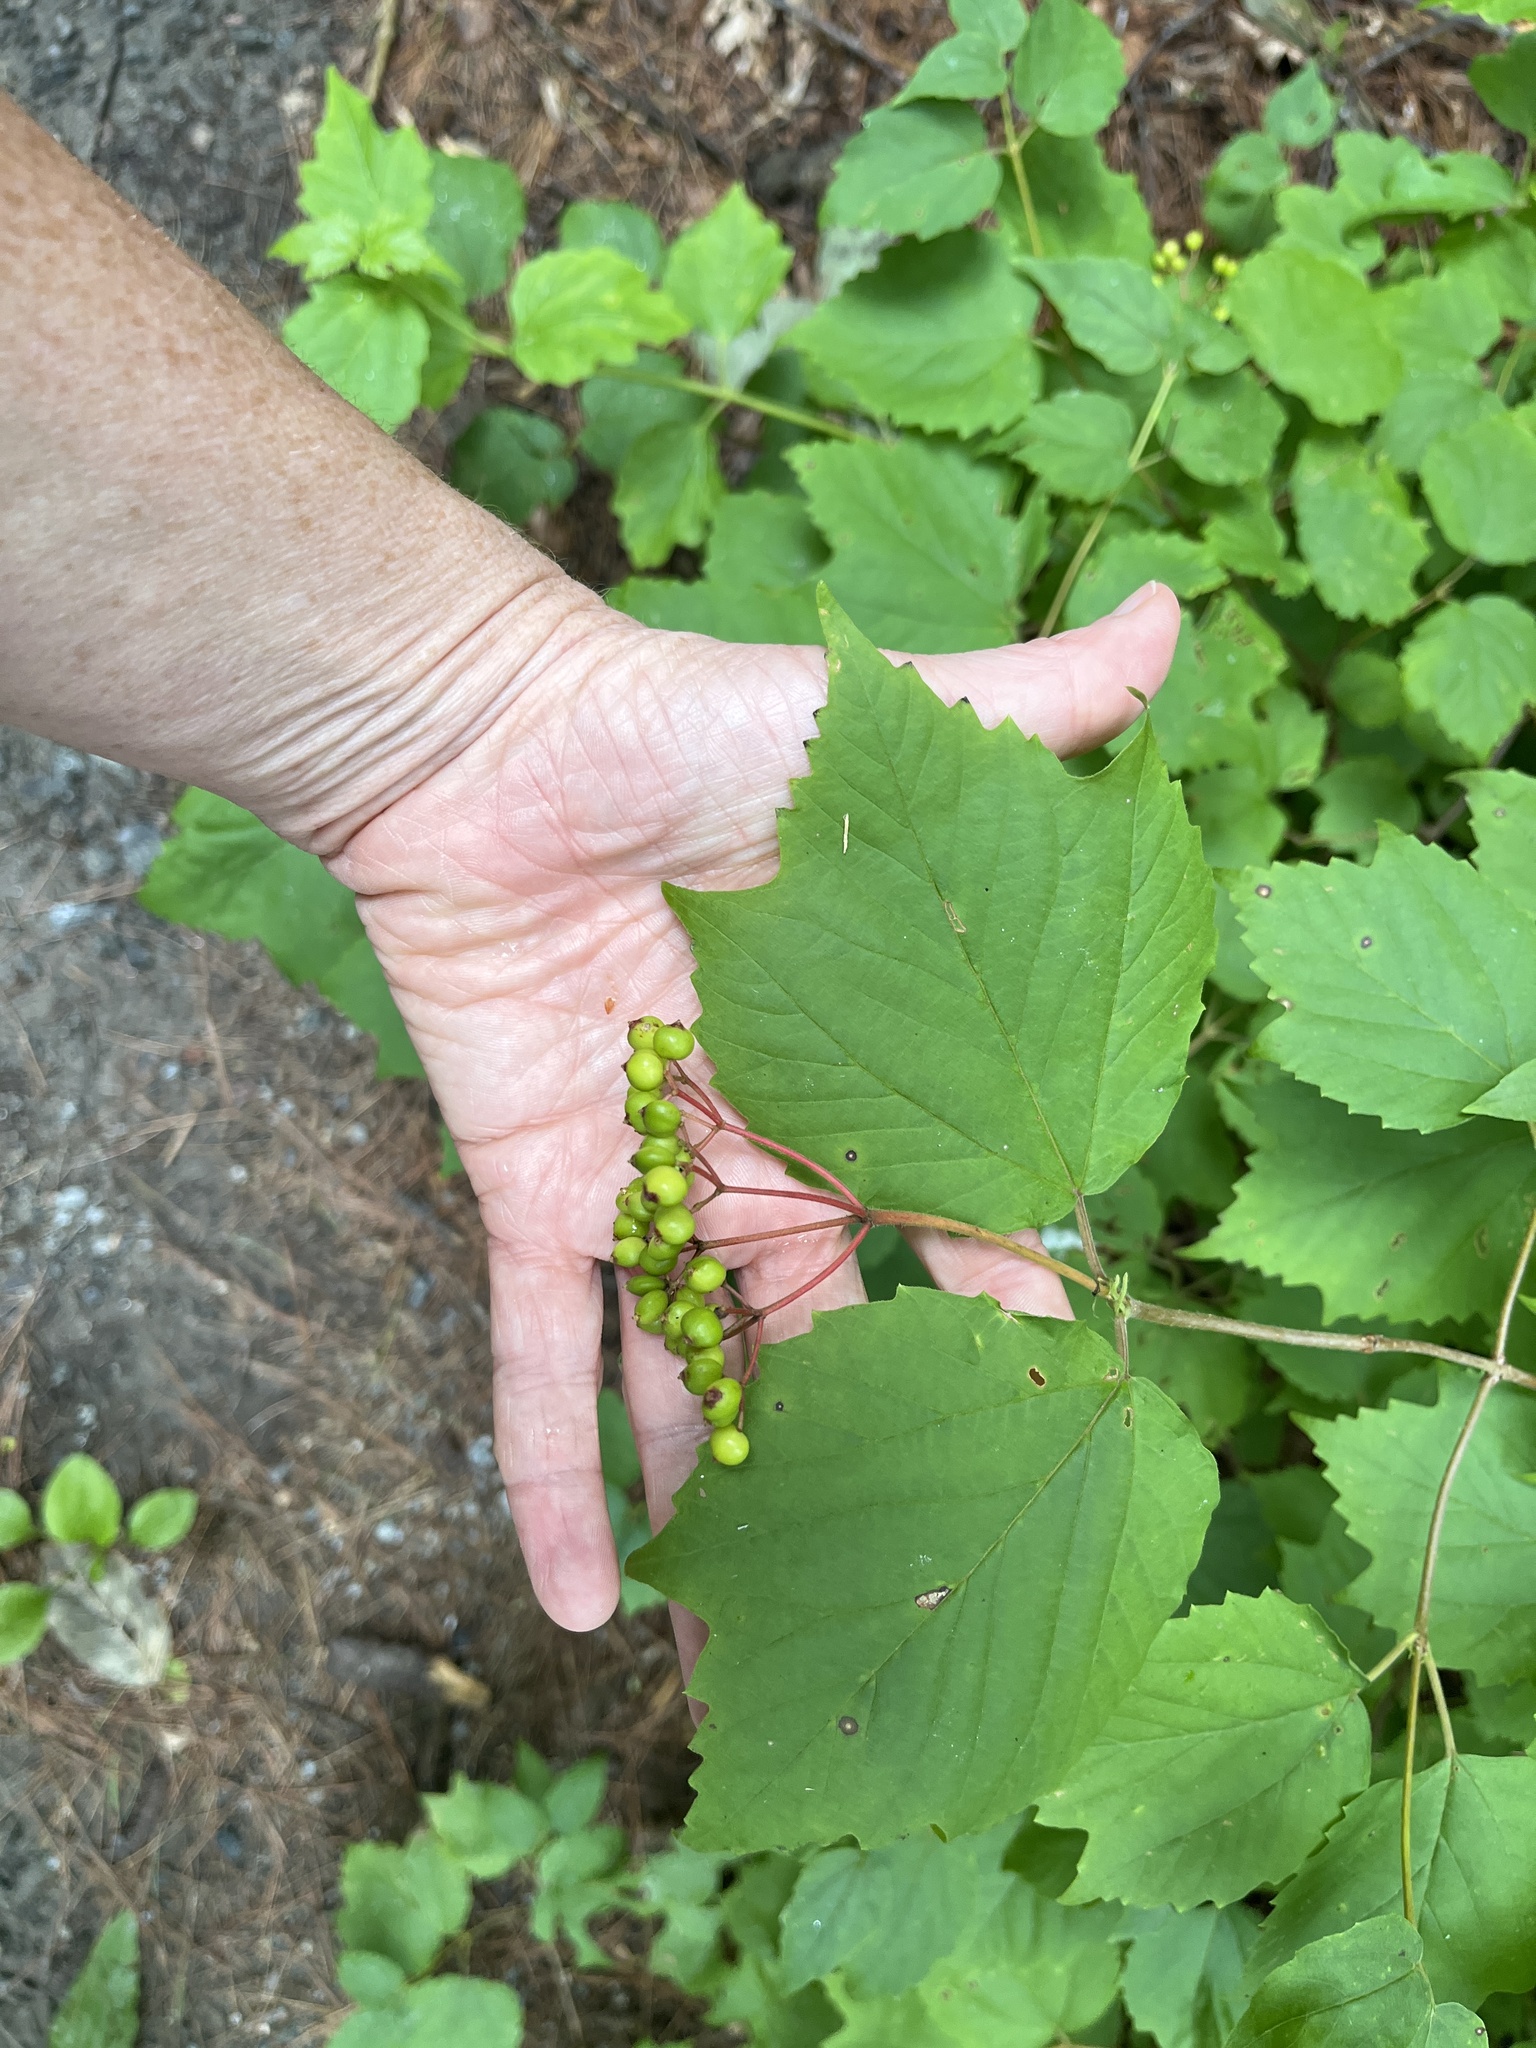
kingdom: Plantae
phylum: Tracheophyta
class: Magnoliopsida
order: Dipsacales
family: Viburnaceae
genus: Viburnum
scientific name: Viburnum acerifolium
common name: Dockmackie
